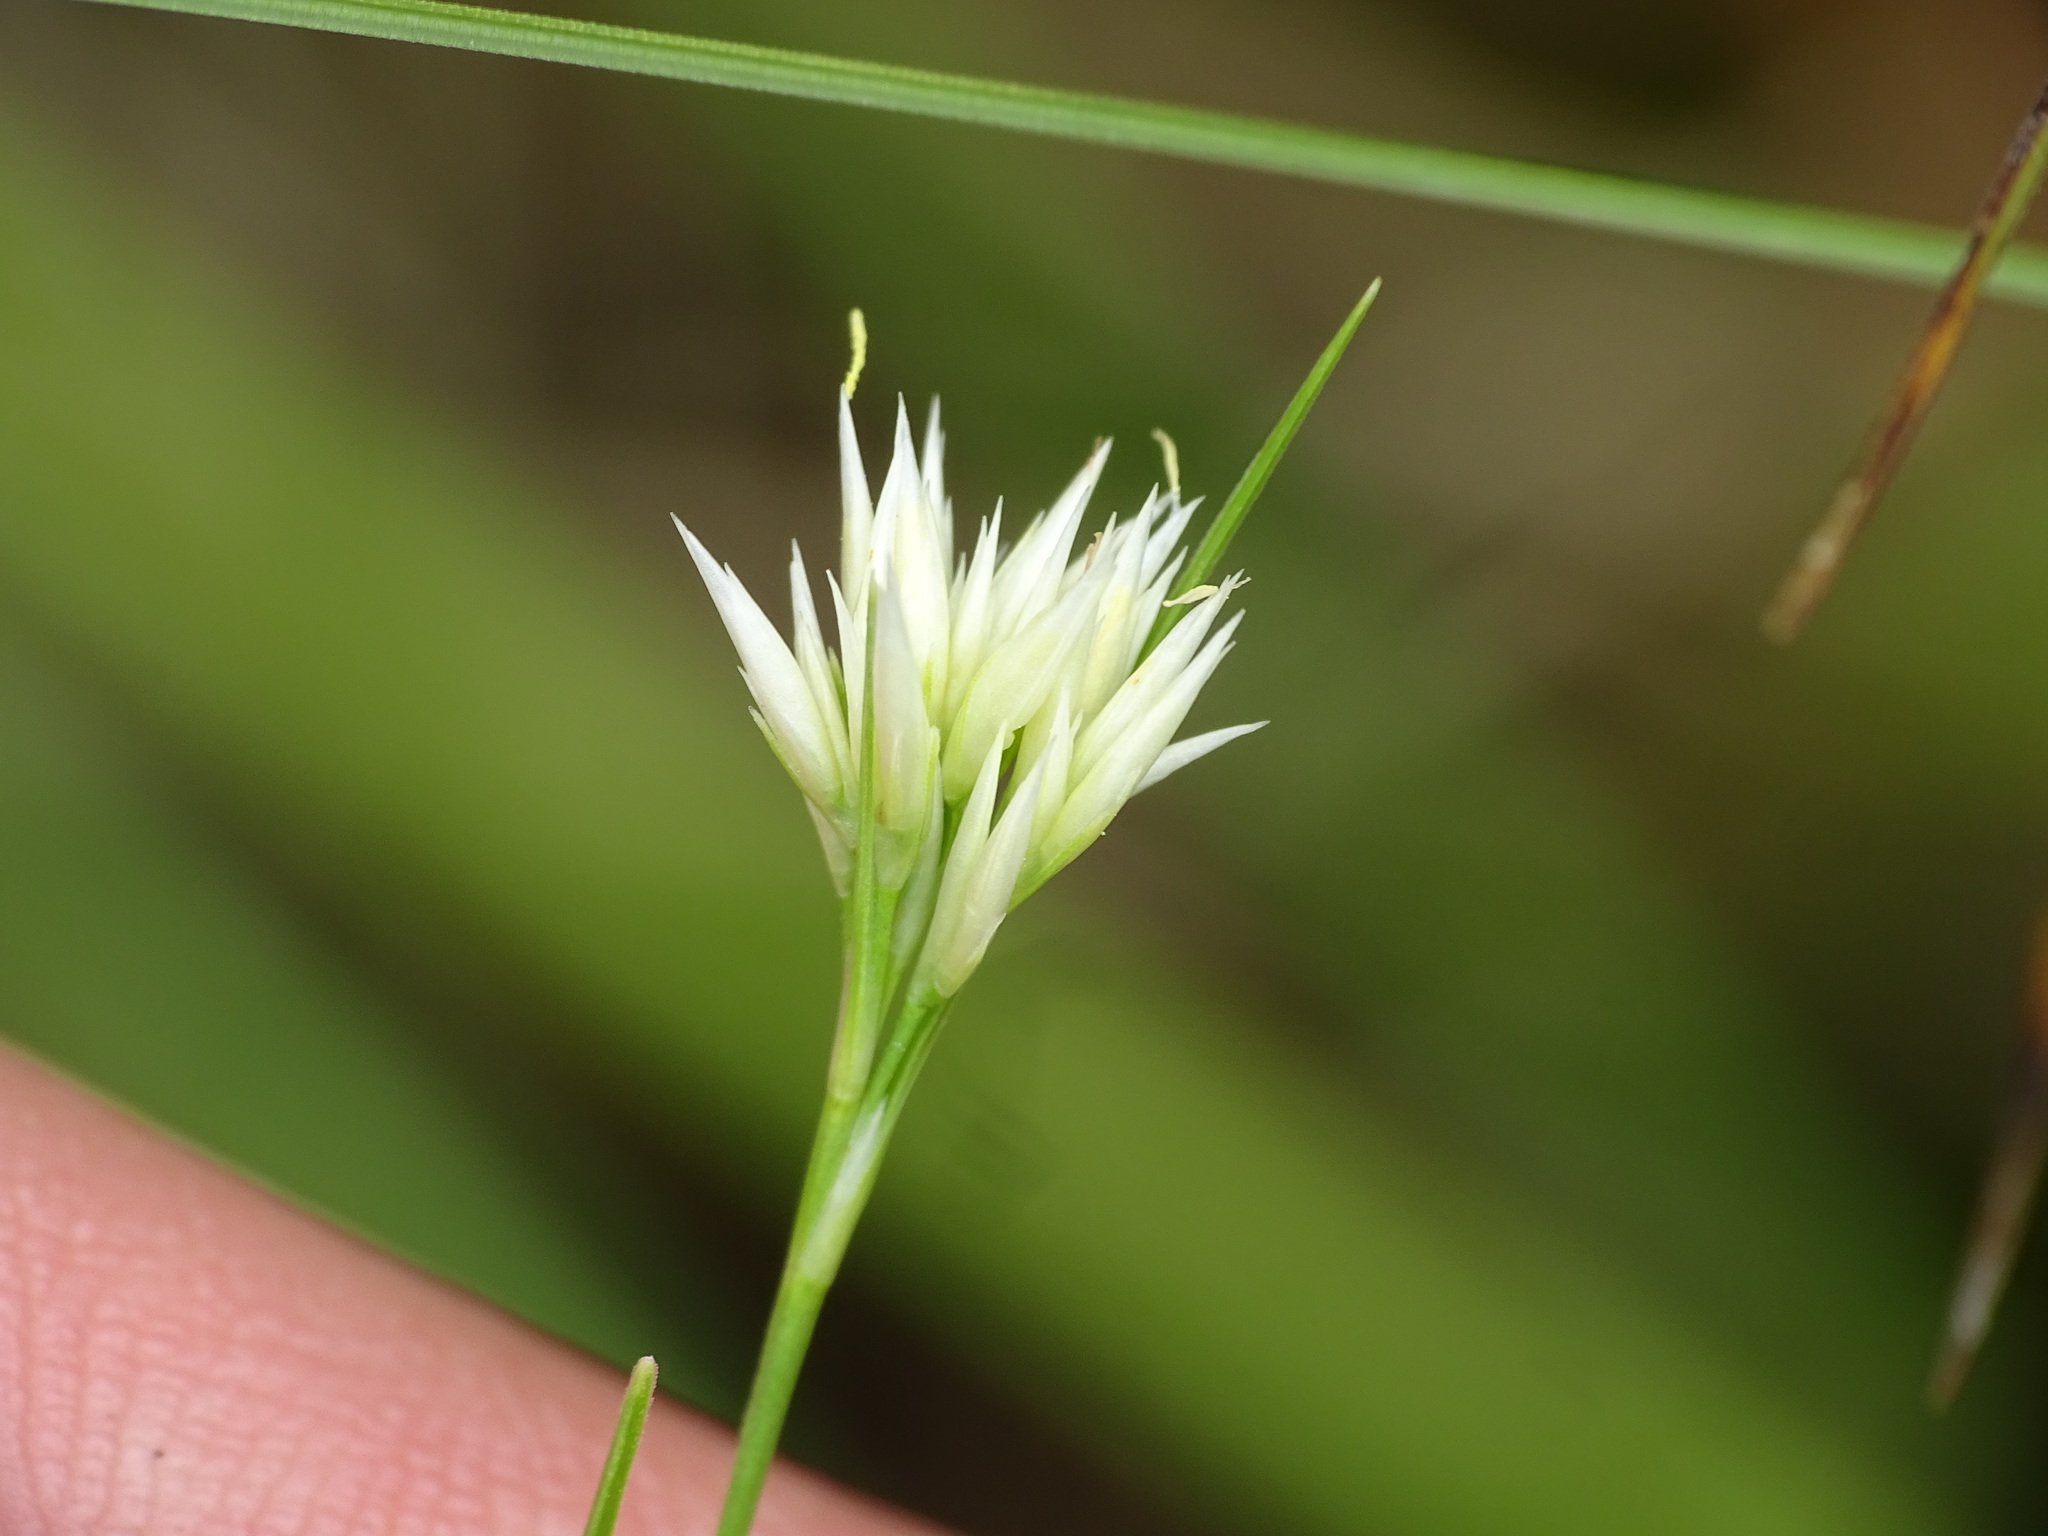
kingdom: Plantae
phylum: Tracheophyta
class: Liliopsida
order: Poales
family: Cyperaceae
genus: Rhynchospora
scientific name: Rhynchospora alba
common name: White beak-sedge
